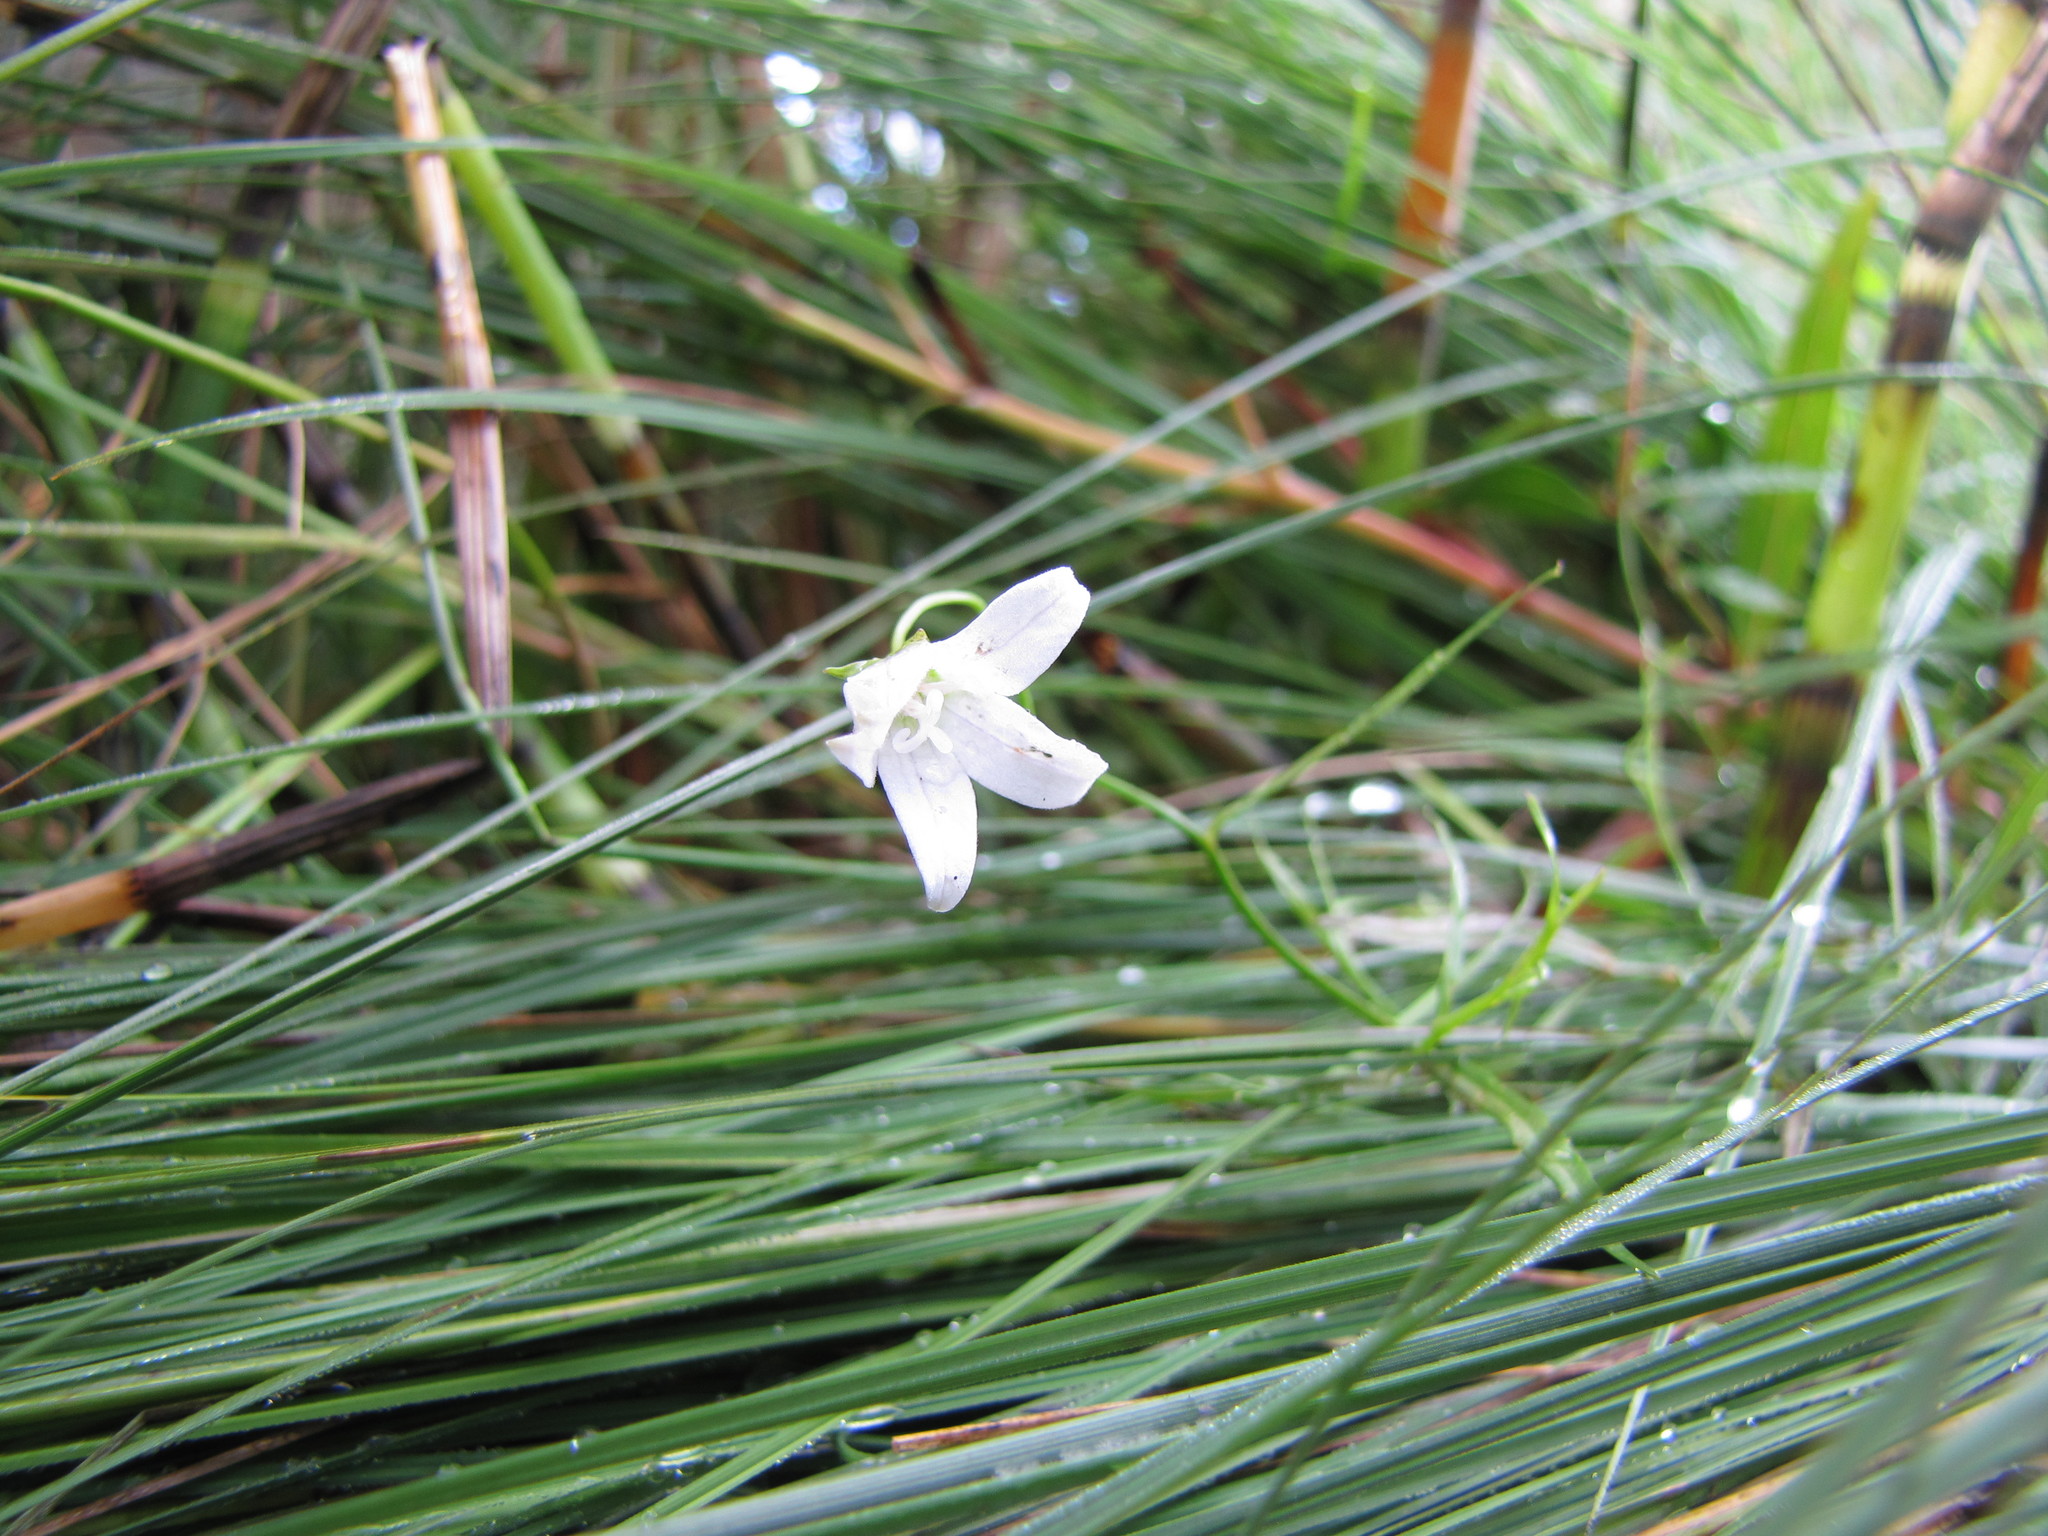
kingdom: Plantae
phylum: Tracheophyta
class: Magnoliopsida
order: Asterales
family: Campanulaceae
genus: Palustricodon
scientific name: Palustricodon aparinoides
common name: Bedstraw bellflower
